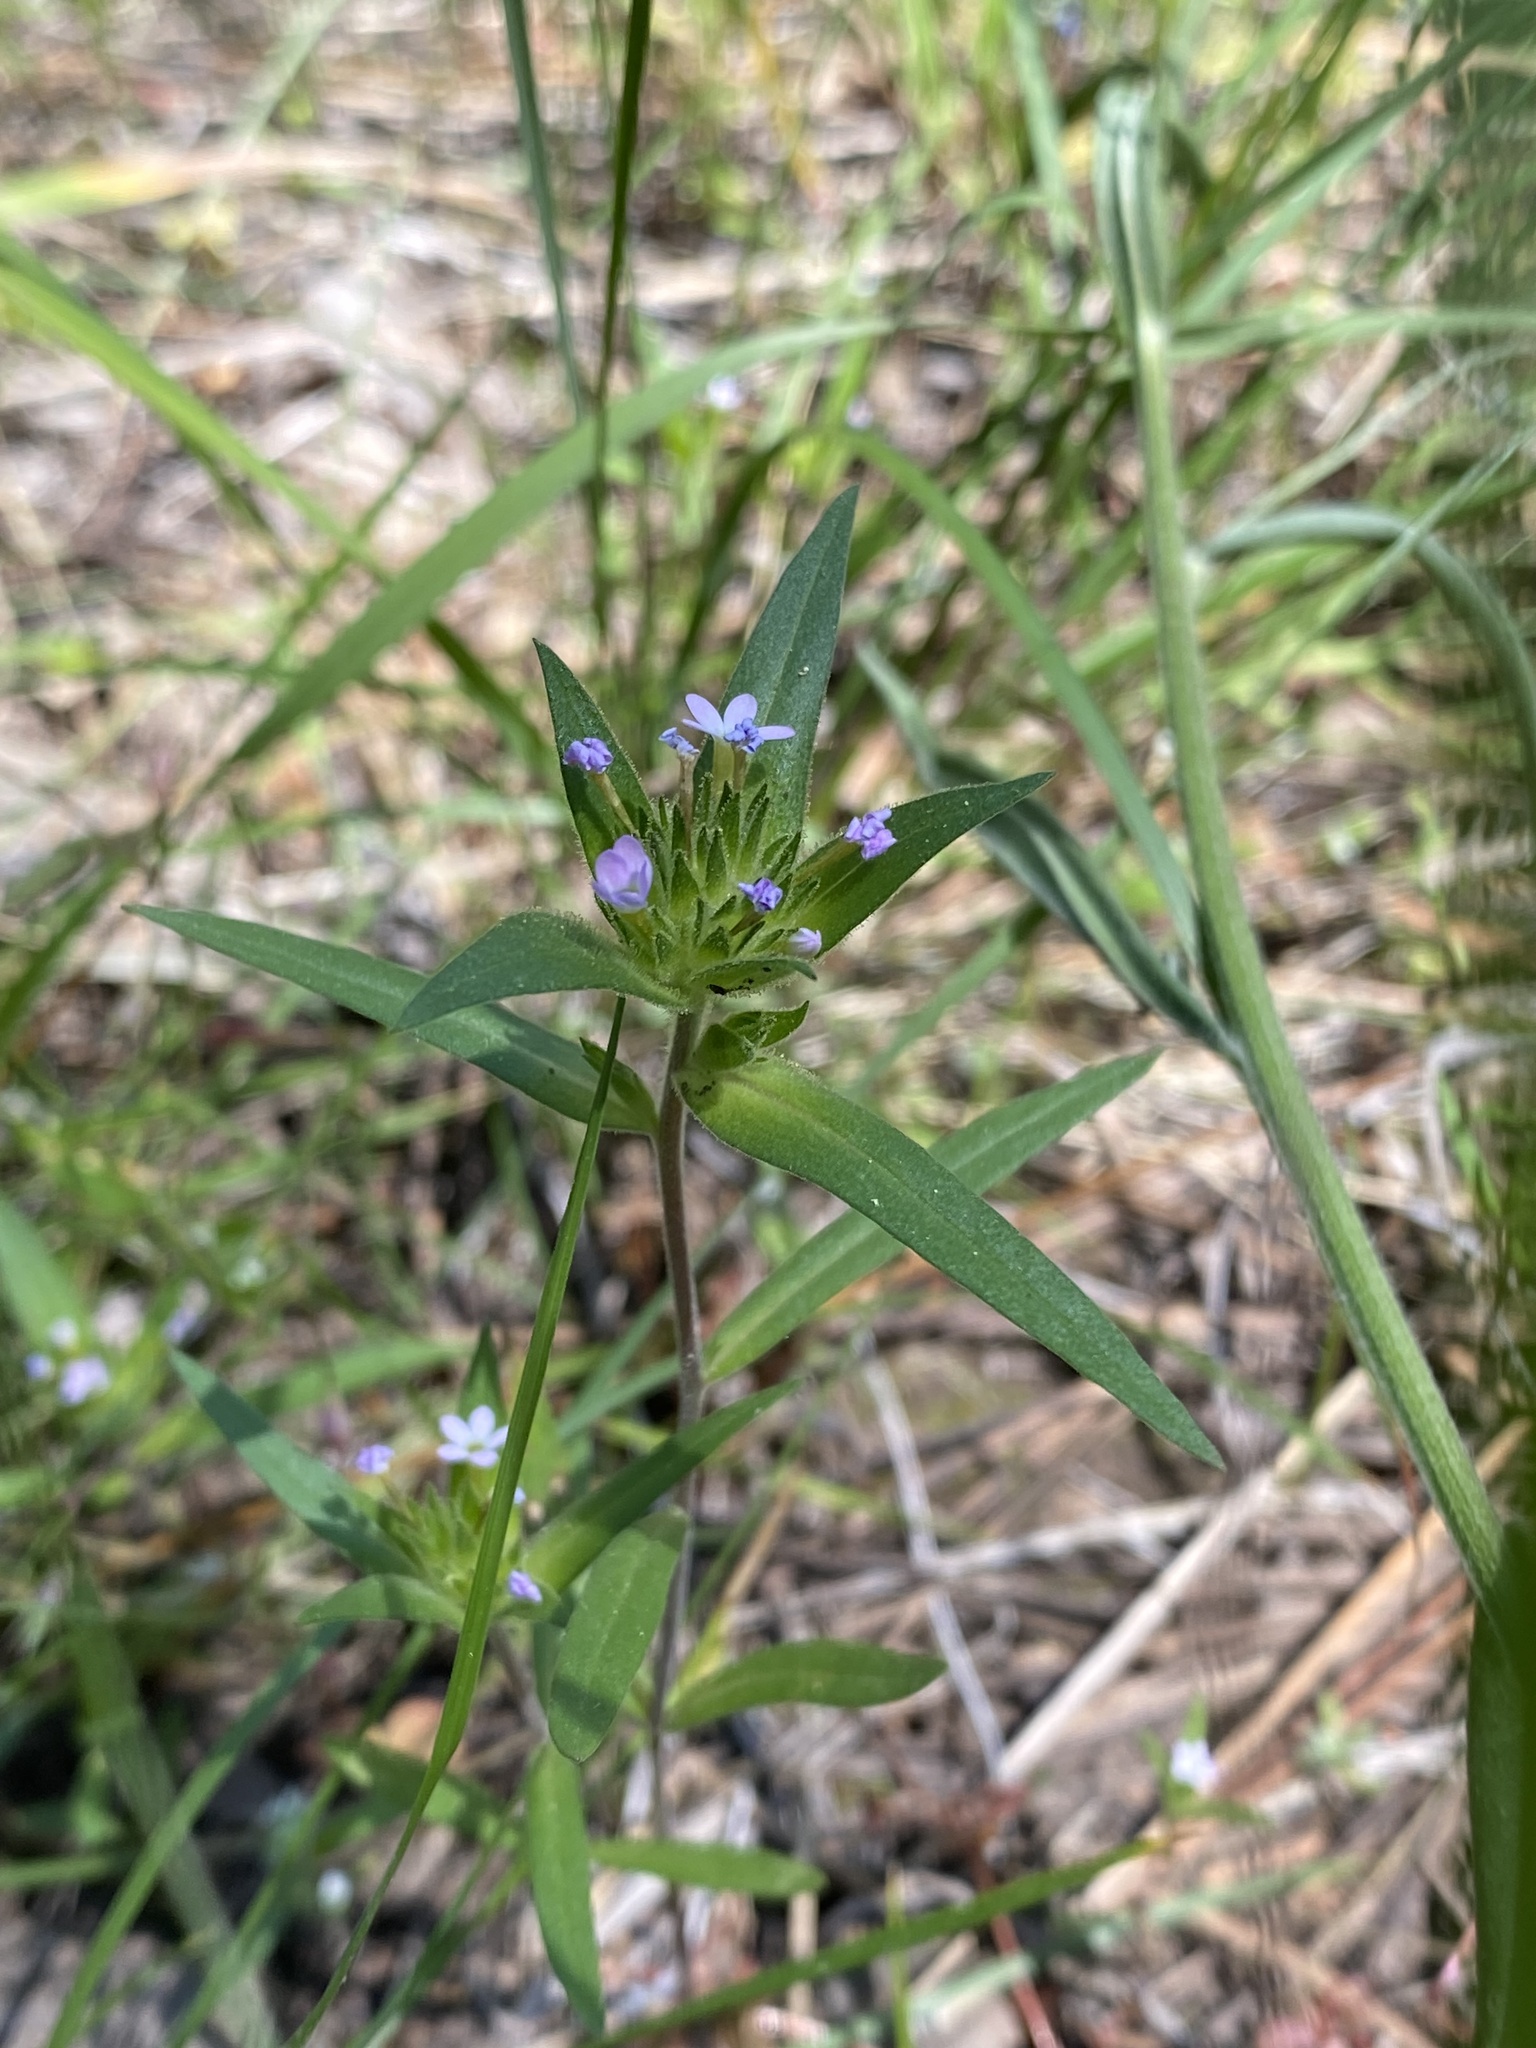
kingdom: Plantae
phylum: Tracheophyta
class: Magnoliopsida
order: Ericales
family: Polemoniaceae
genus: Collomia
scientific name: Collomia linearis
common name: Tiny trumpet
